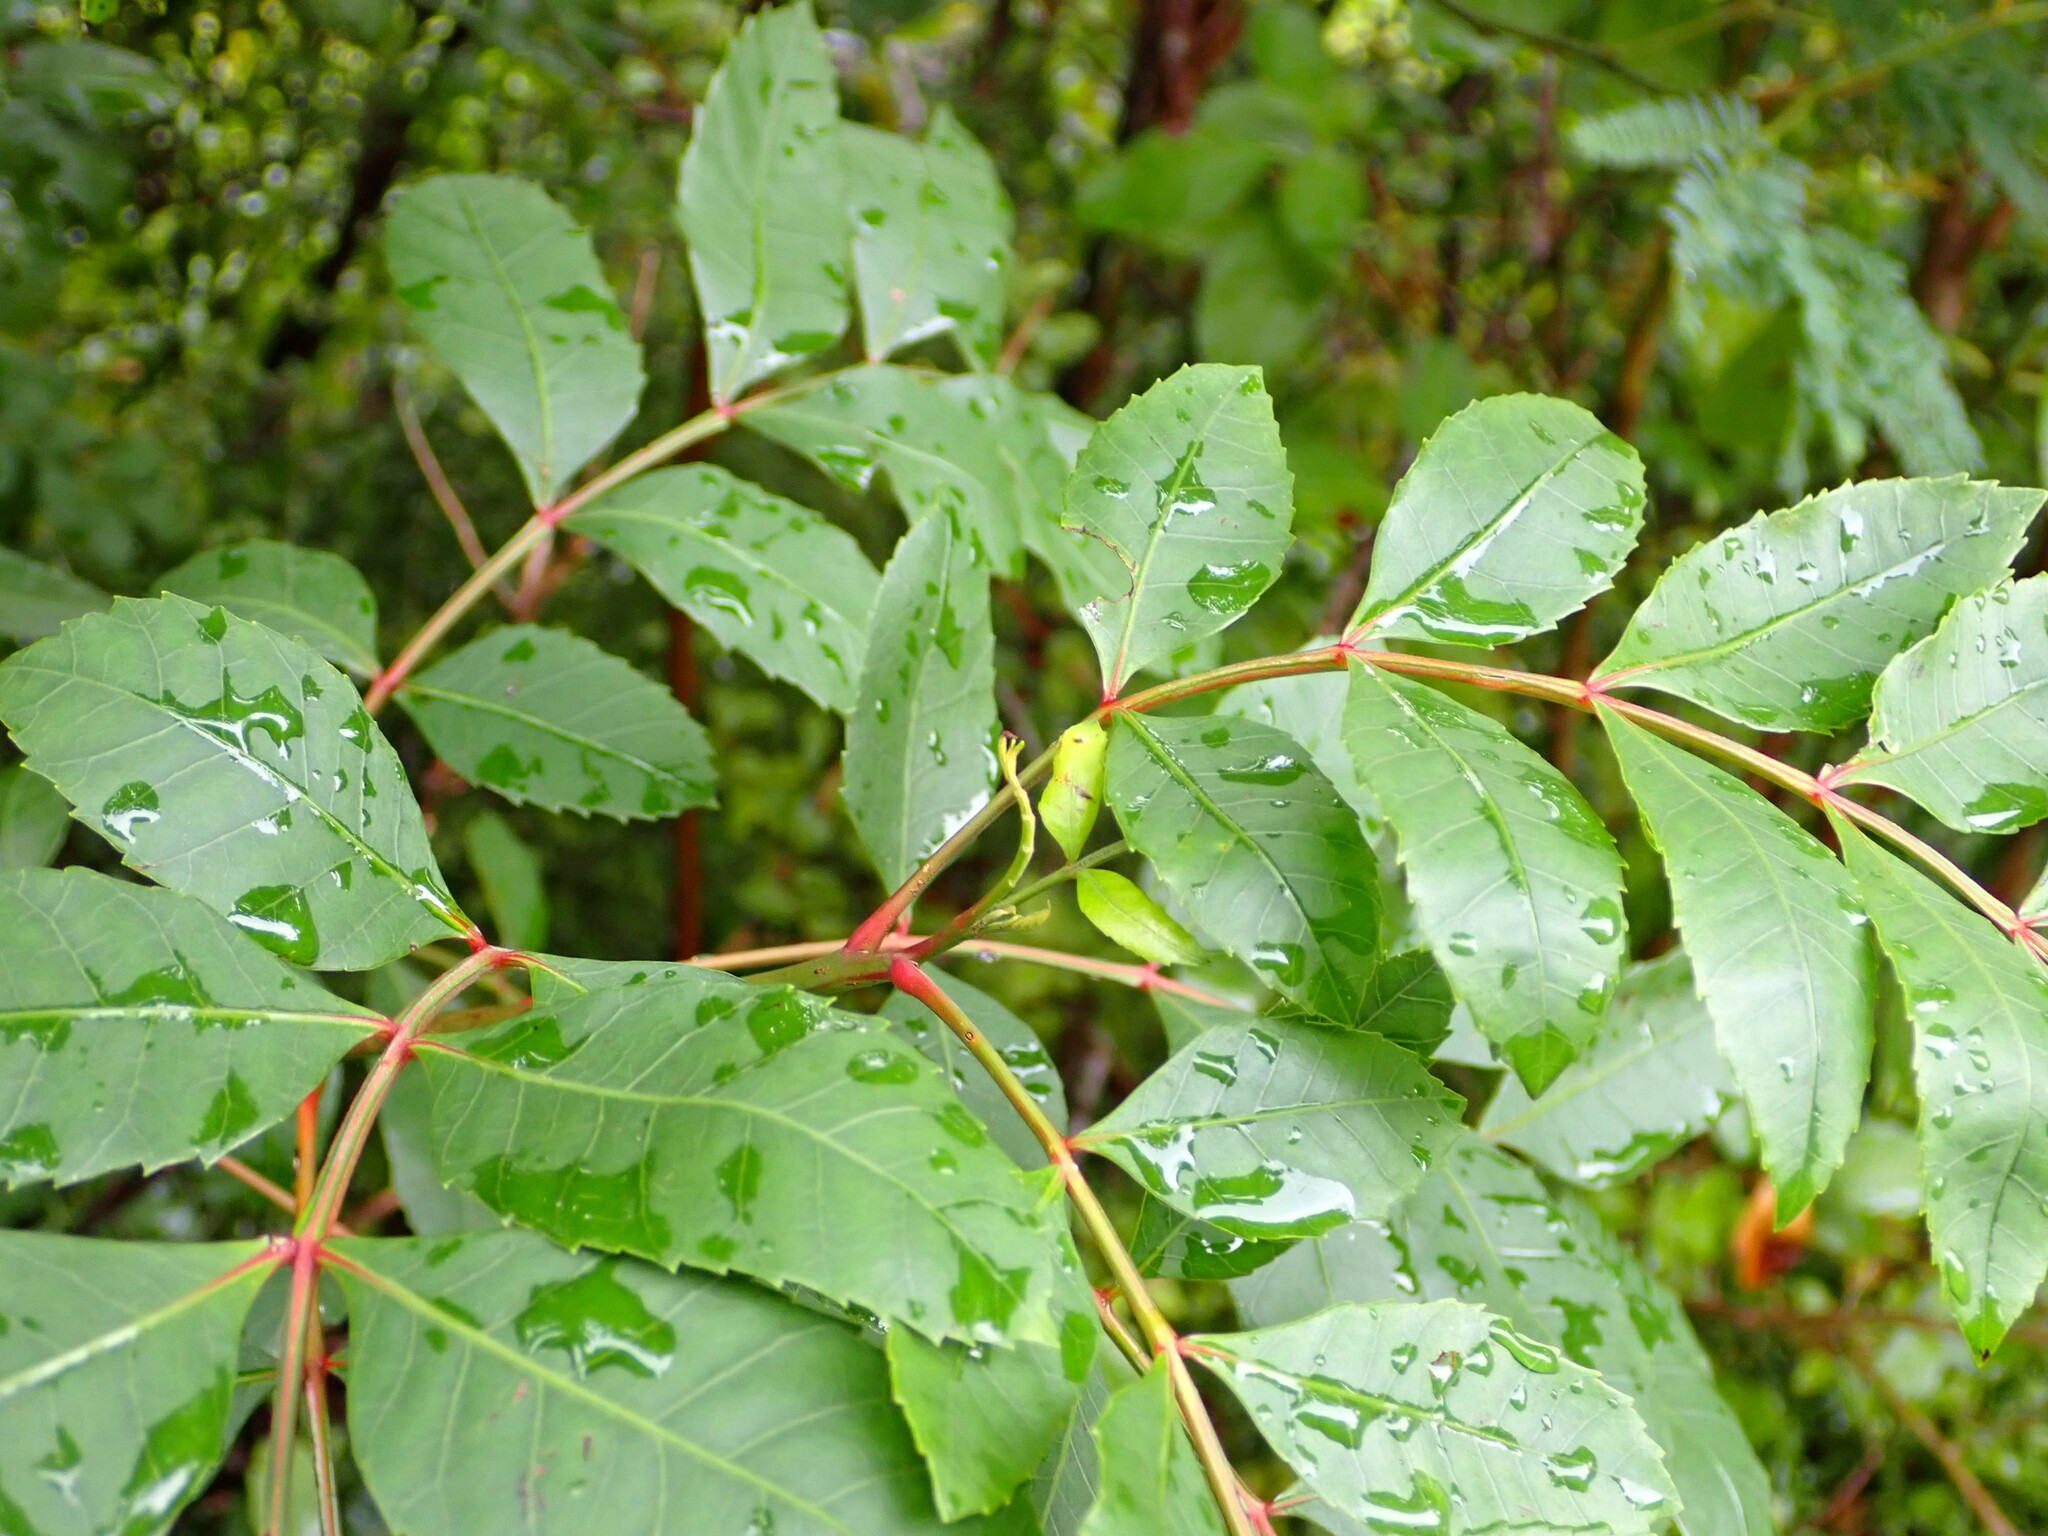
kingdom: Plantae
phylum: Tracheophyta
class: Magnoliopsida
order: Sapindales
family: Anacardiaceae
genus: Schinus
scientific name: Schinus terebinthifolia
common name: Brazilian peppertree
